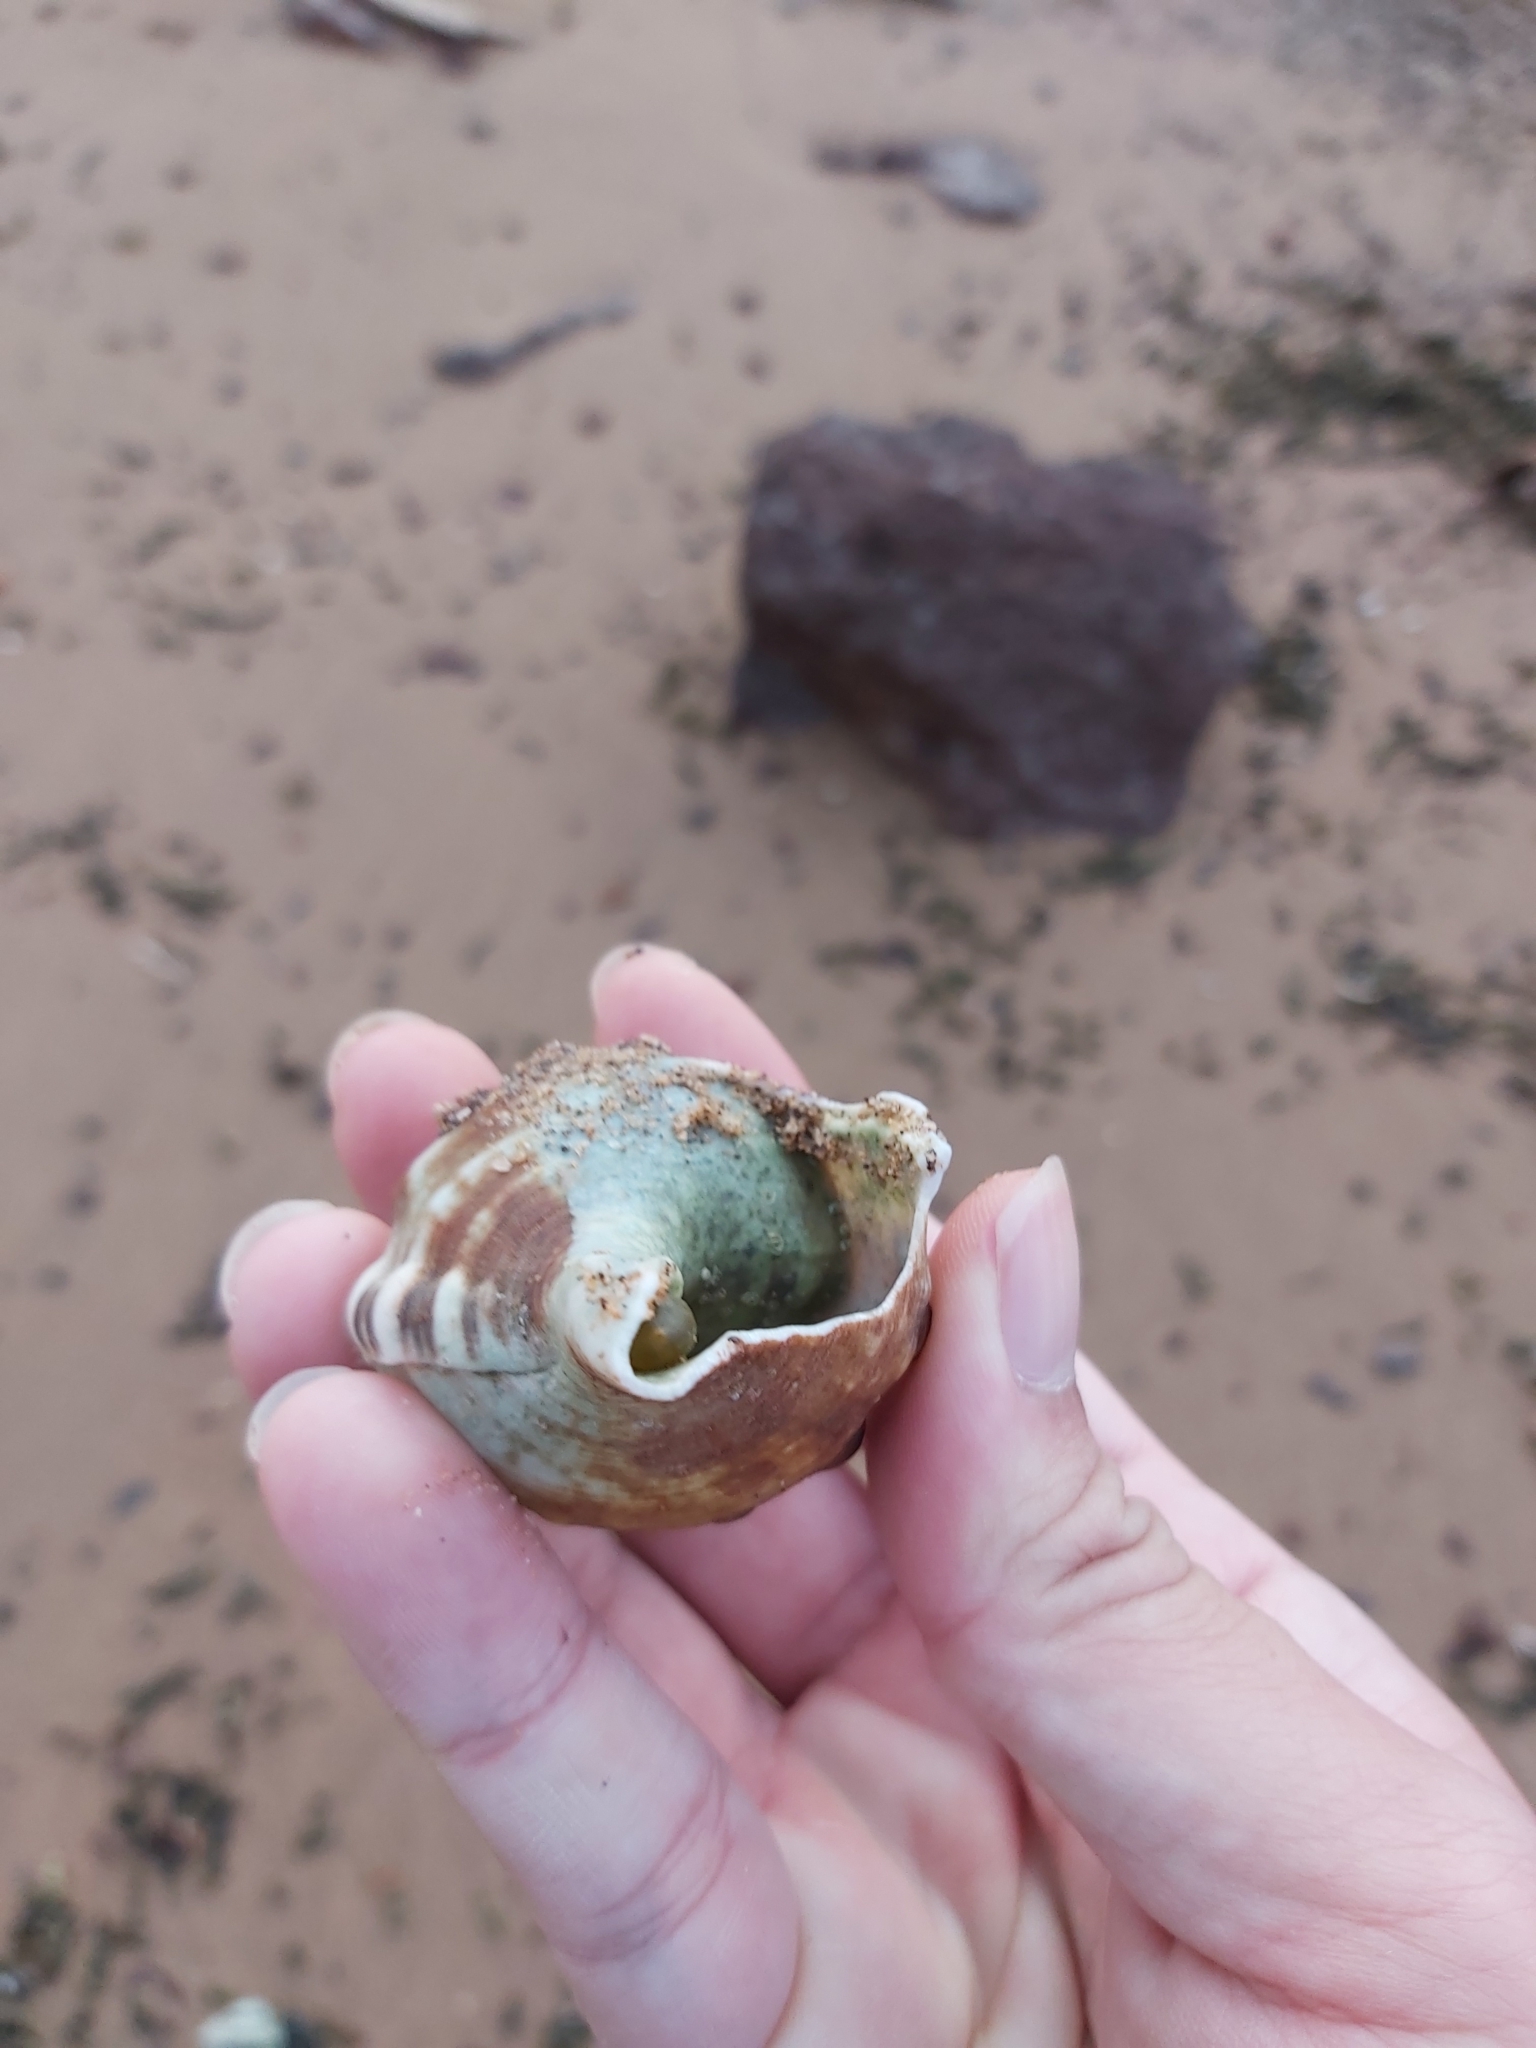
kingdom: Animalia
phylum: Mollusca
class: Gastropoda
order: Littorinimorpha
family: Ranellidae
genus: Ranella
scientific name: Ranella australasia
